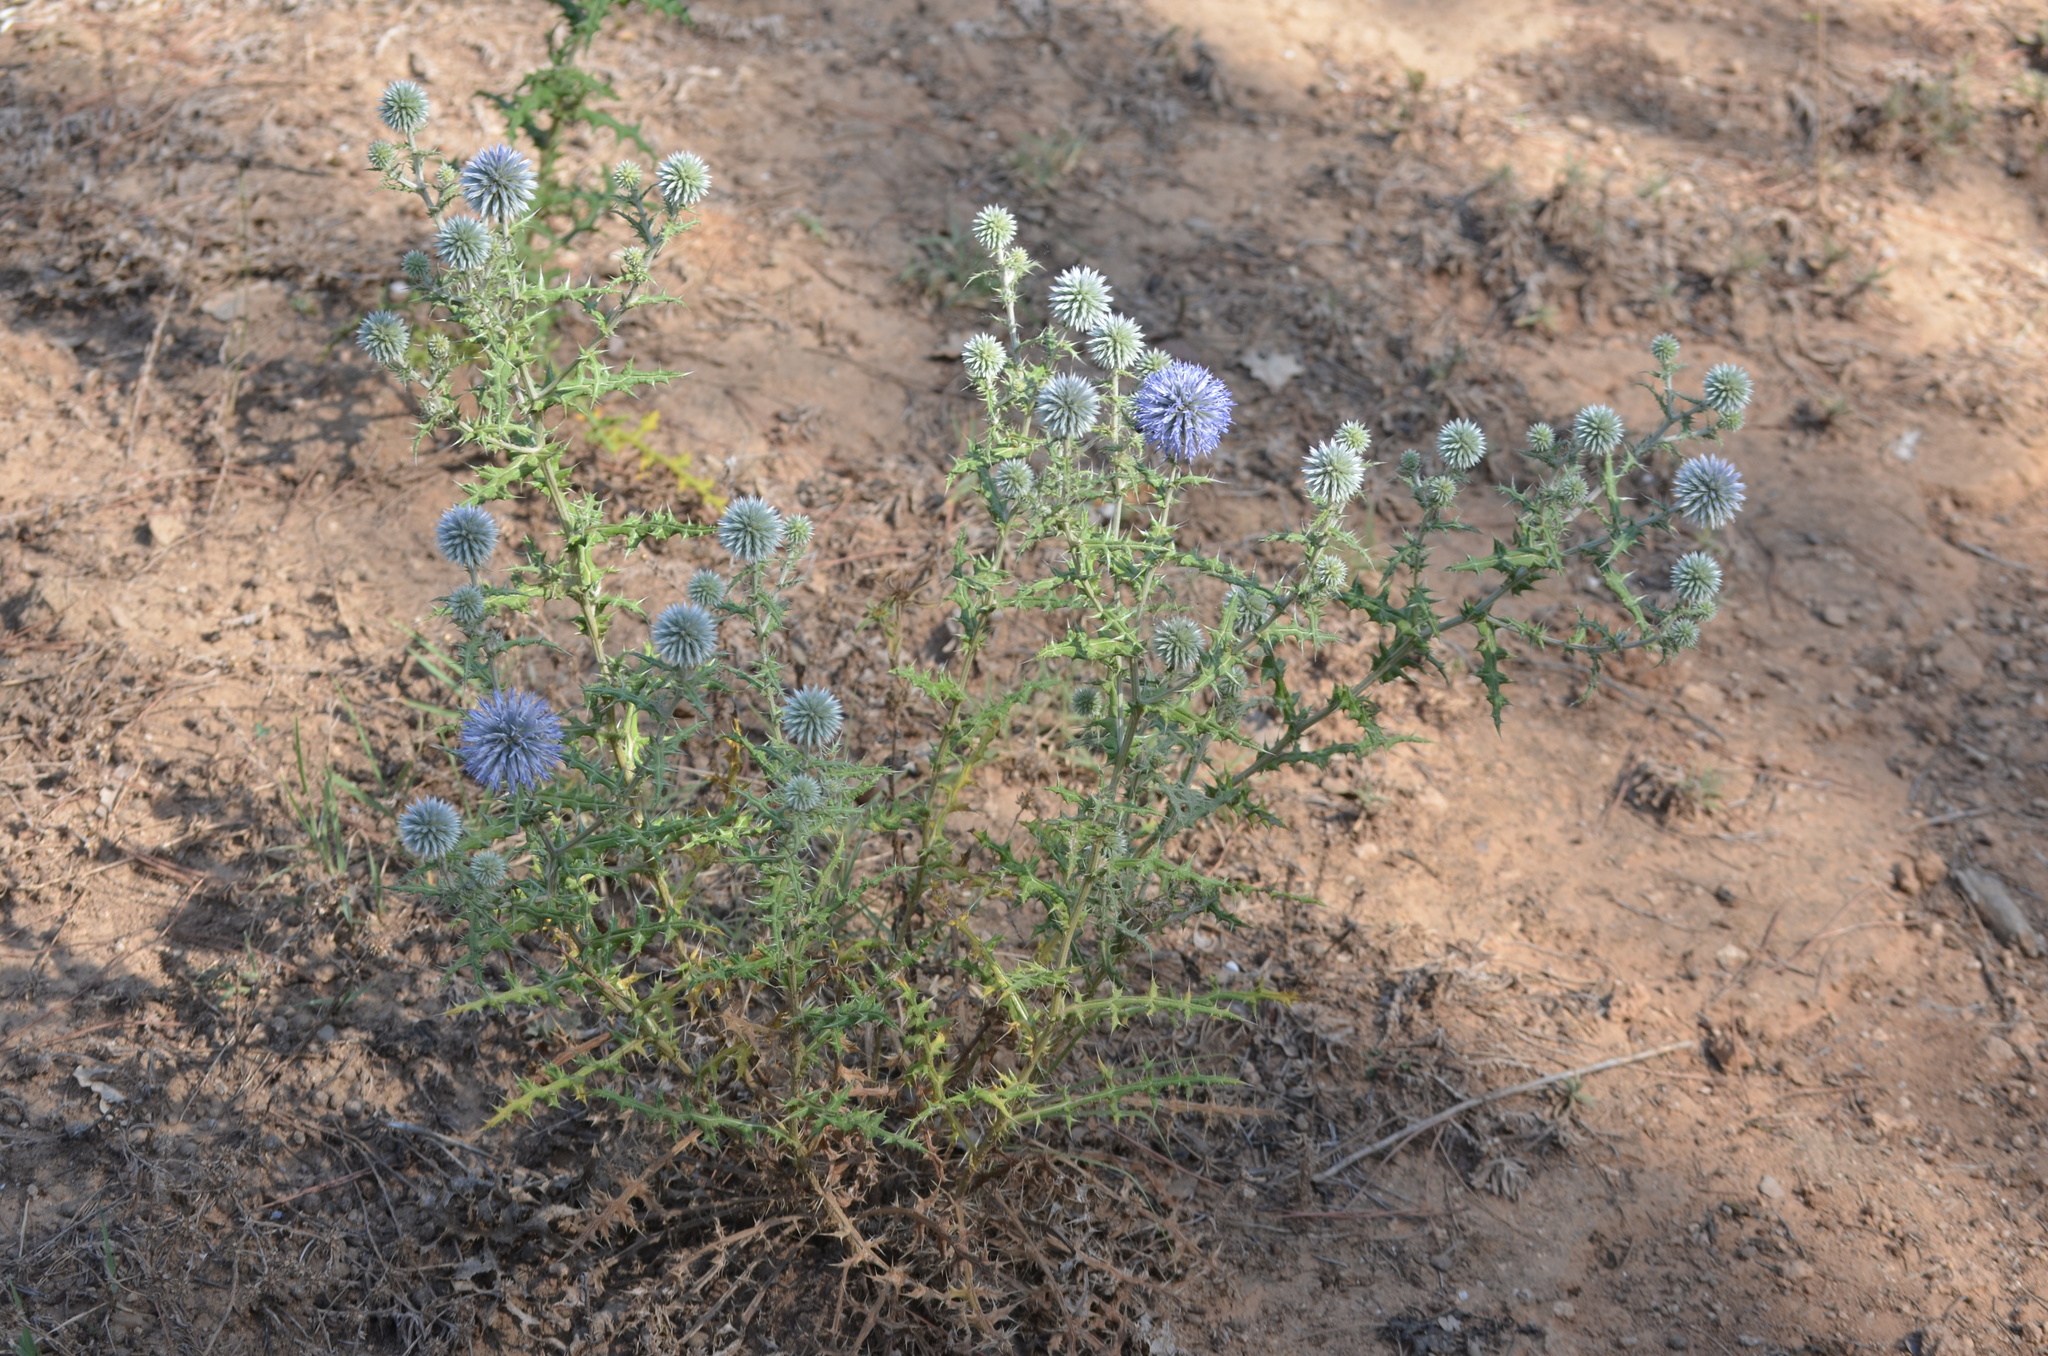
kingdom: Plantae
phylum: Tracheophyta
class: Magnoliopsida
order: Asterales
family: Asteraceae
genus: Echinops
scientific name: Echinops ritro
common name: Globe thistle
